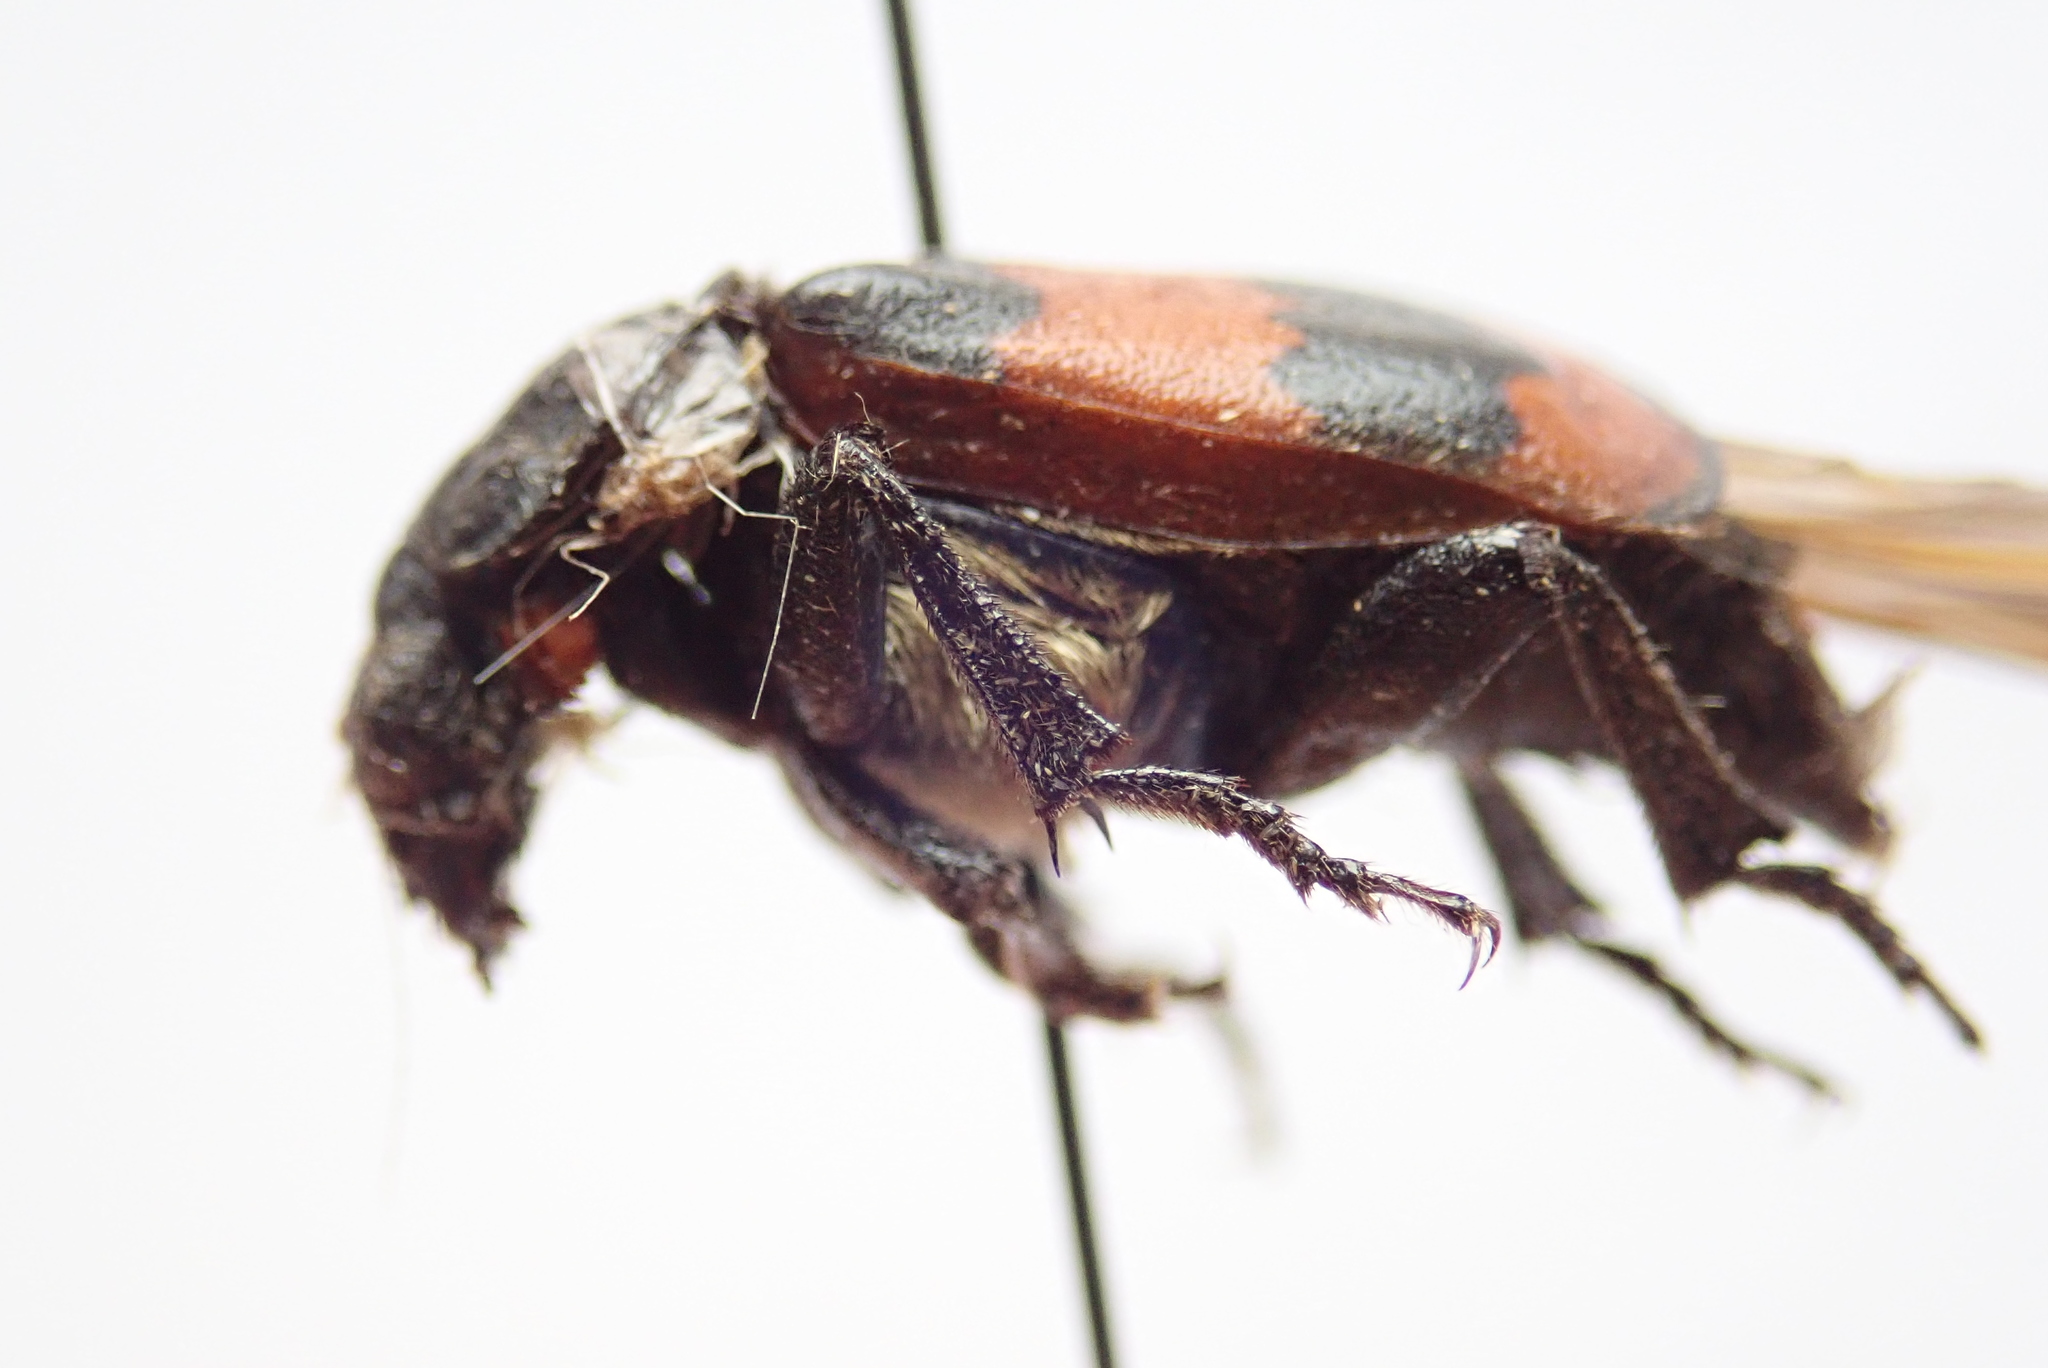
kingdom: Animalia
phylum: Arthropoda
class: Insecta
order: Coleoptera
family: Staphylinidae
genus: Nicrophorus
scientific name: Nicrophorus investigator
